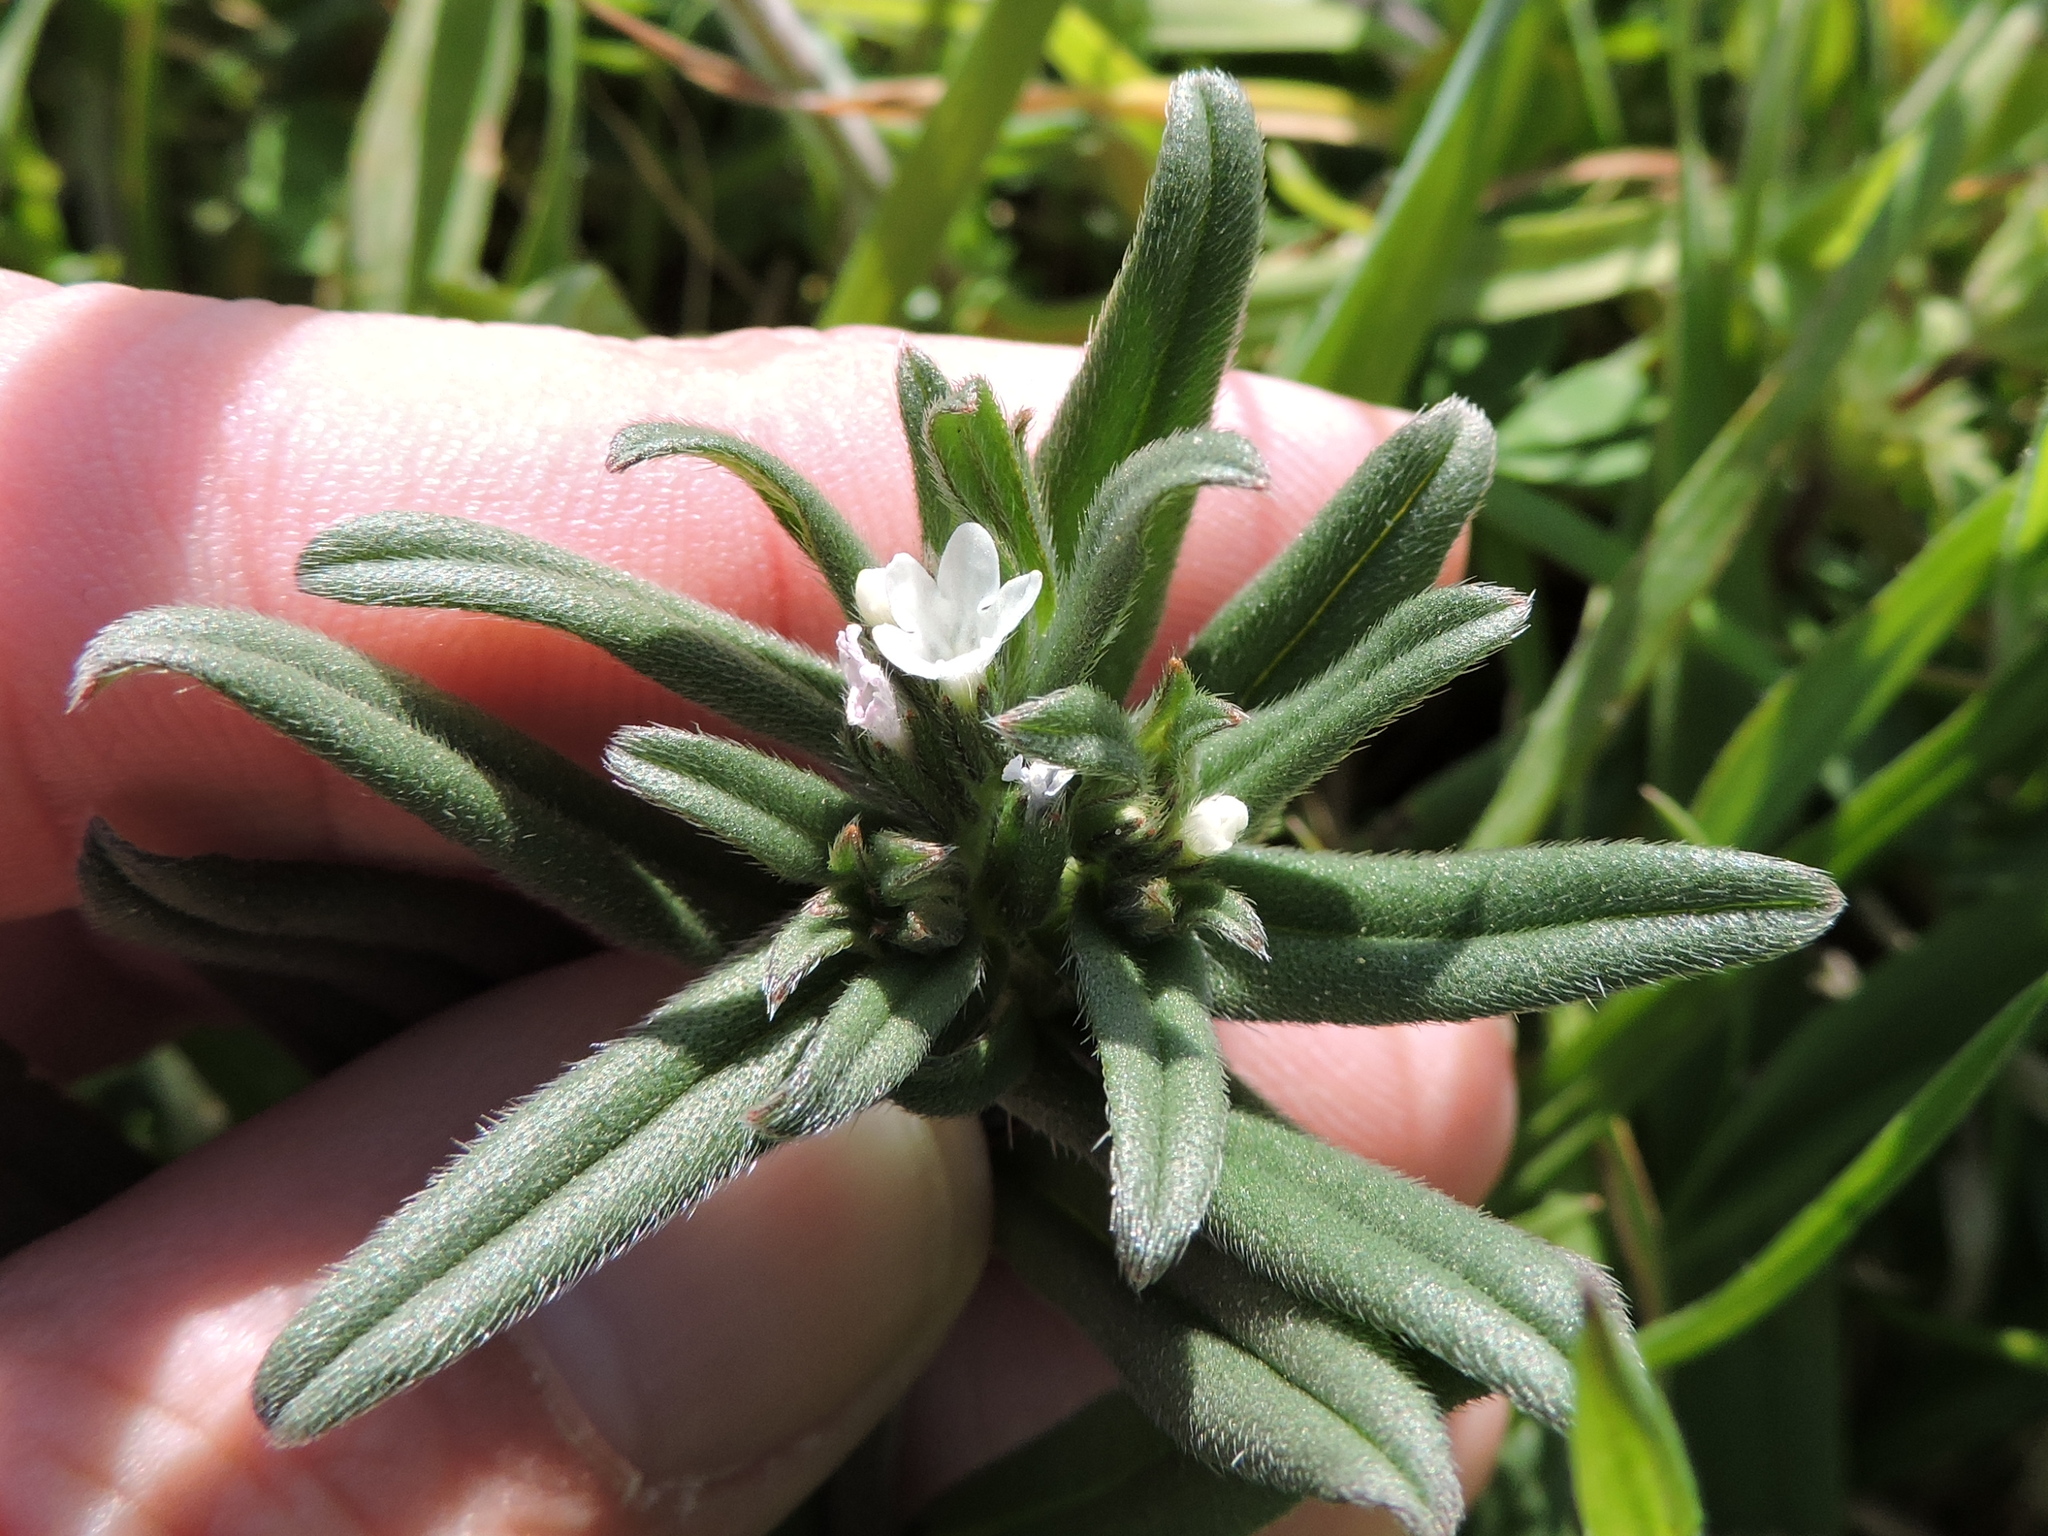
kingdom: Plantae
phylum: Tracheophyta
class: Magnoliopsida
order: Boraginales
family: Boraginaceae
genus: Buglossoides
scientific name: Buglossoides arvensis
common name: Corn gromwell
